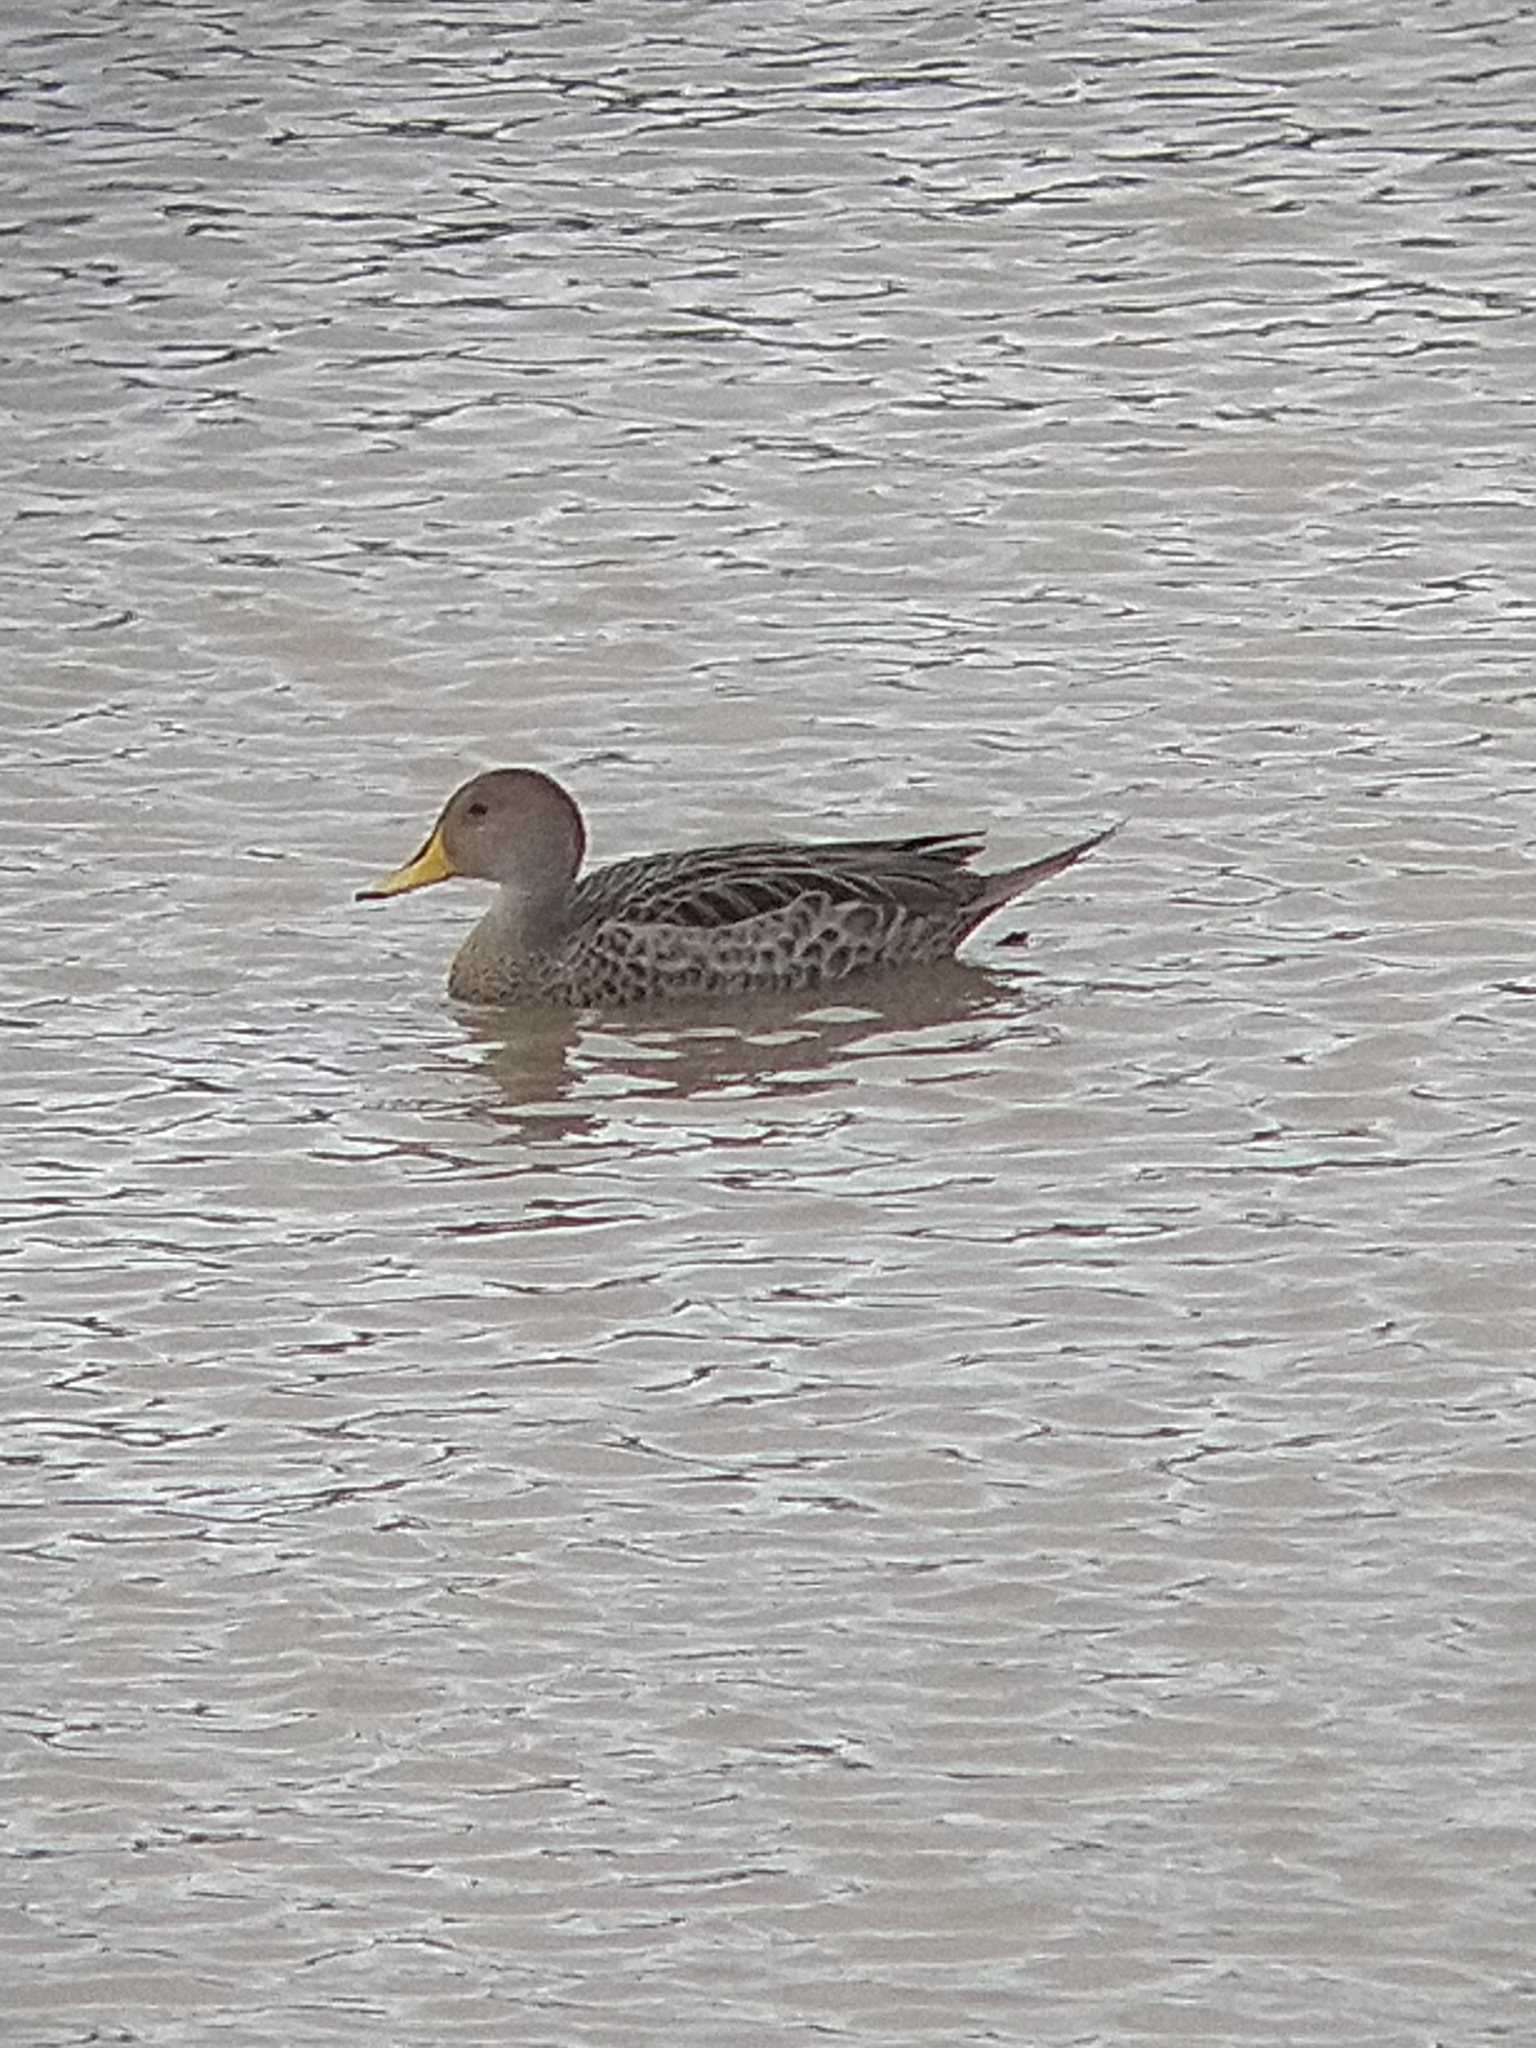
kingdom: Animalia
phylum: Chordata
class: Aves
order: Anseriformes
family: Anatidae
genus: Anas
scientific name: Anas georgica
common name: Yellow-billed pintail
